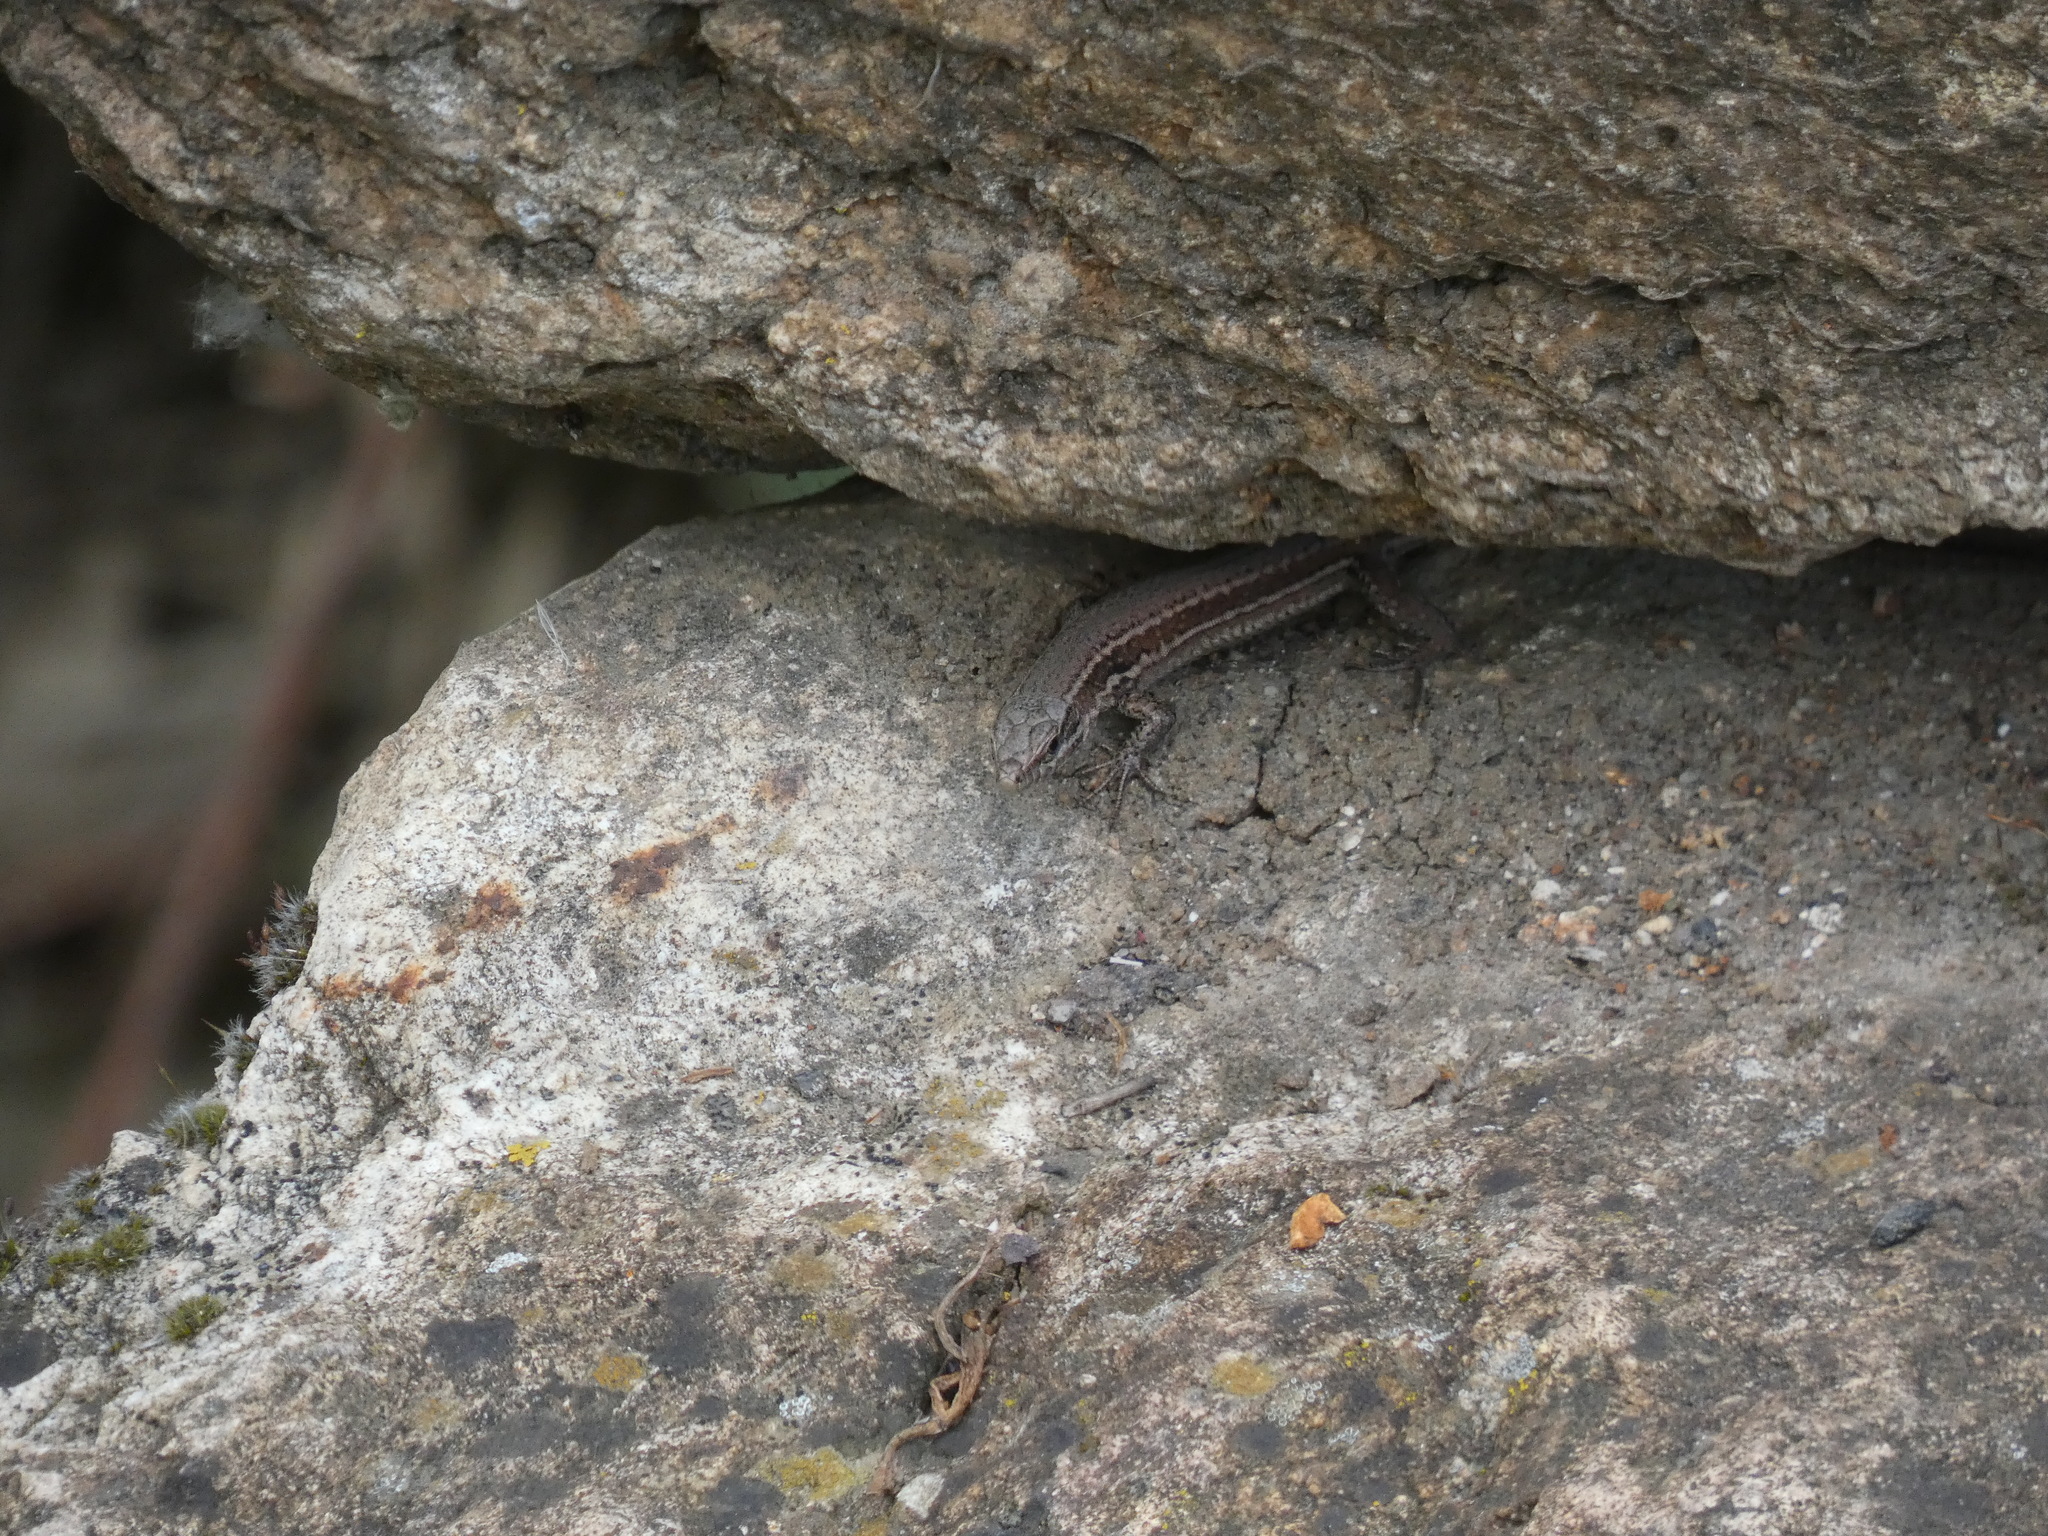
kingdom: Animalia
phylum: Chordata
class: Squamata
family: Lacertidae
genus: Podarcis
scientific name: Podarcis muralis
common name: Common wall lizard
